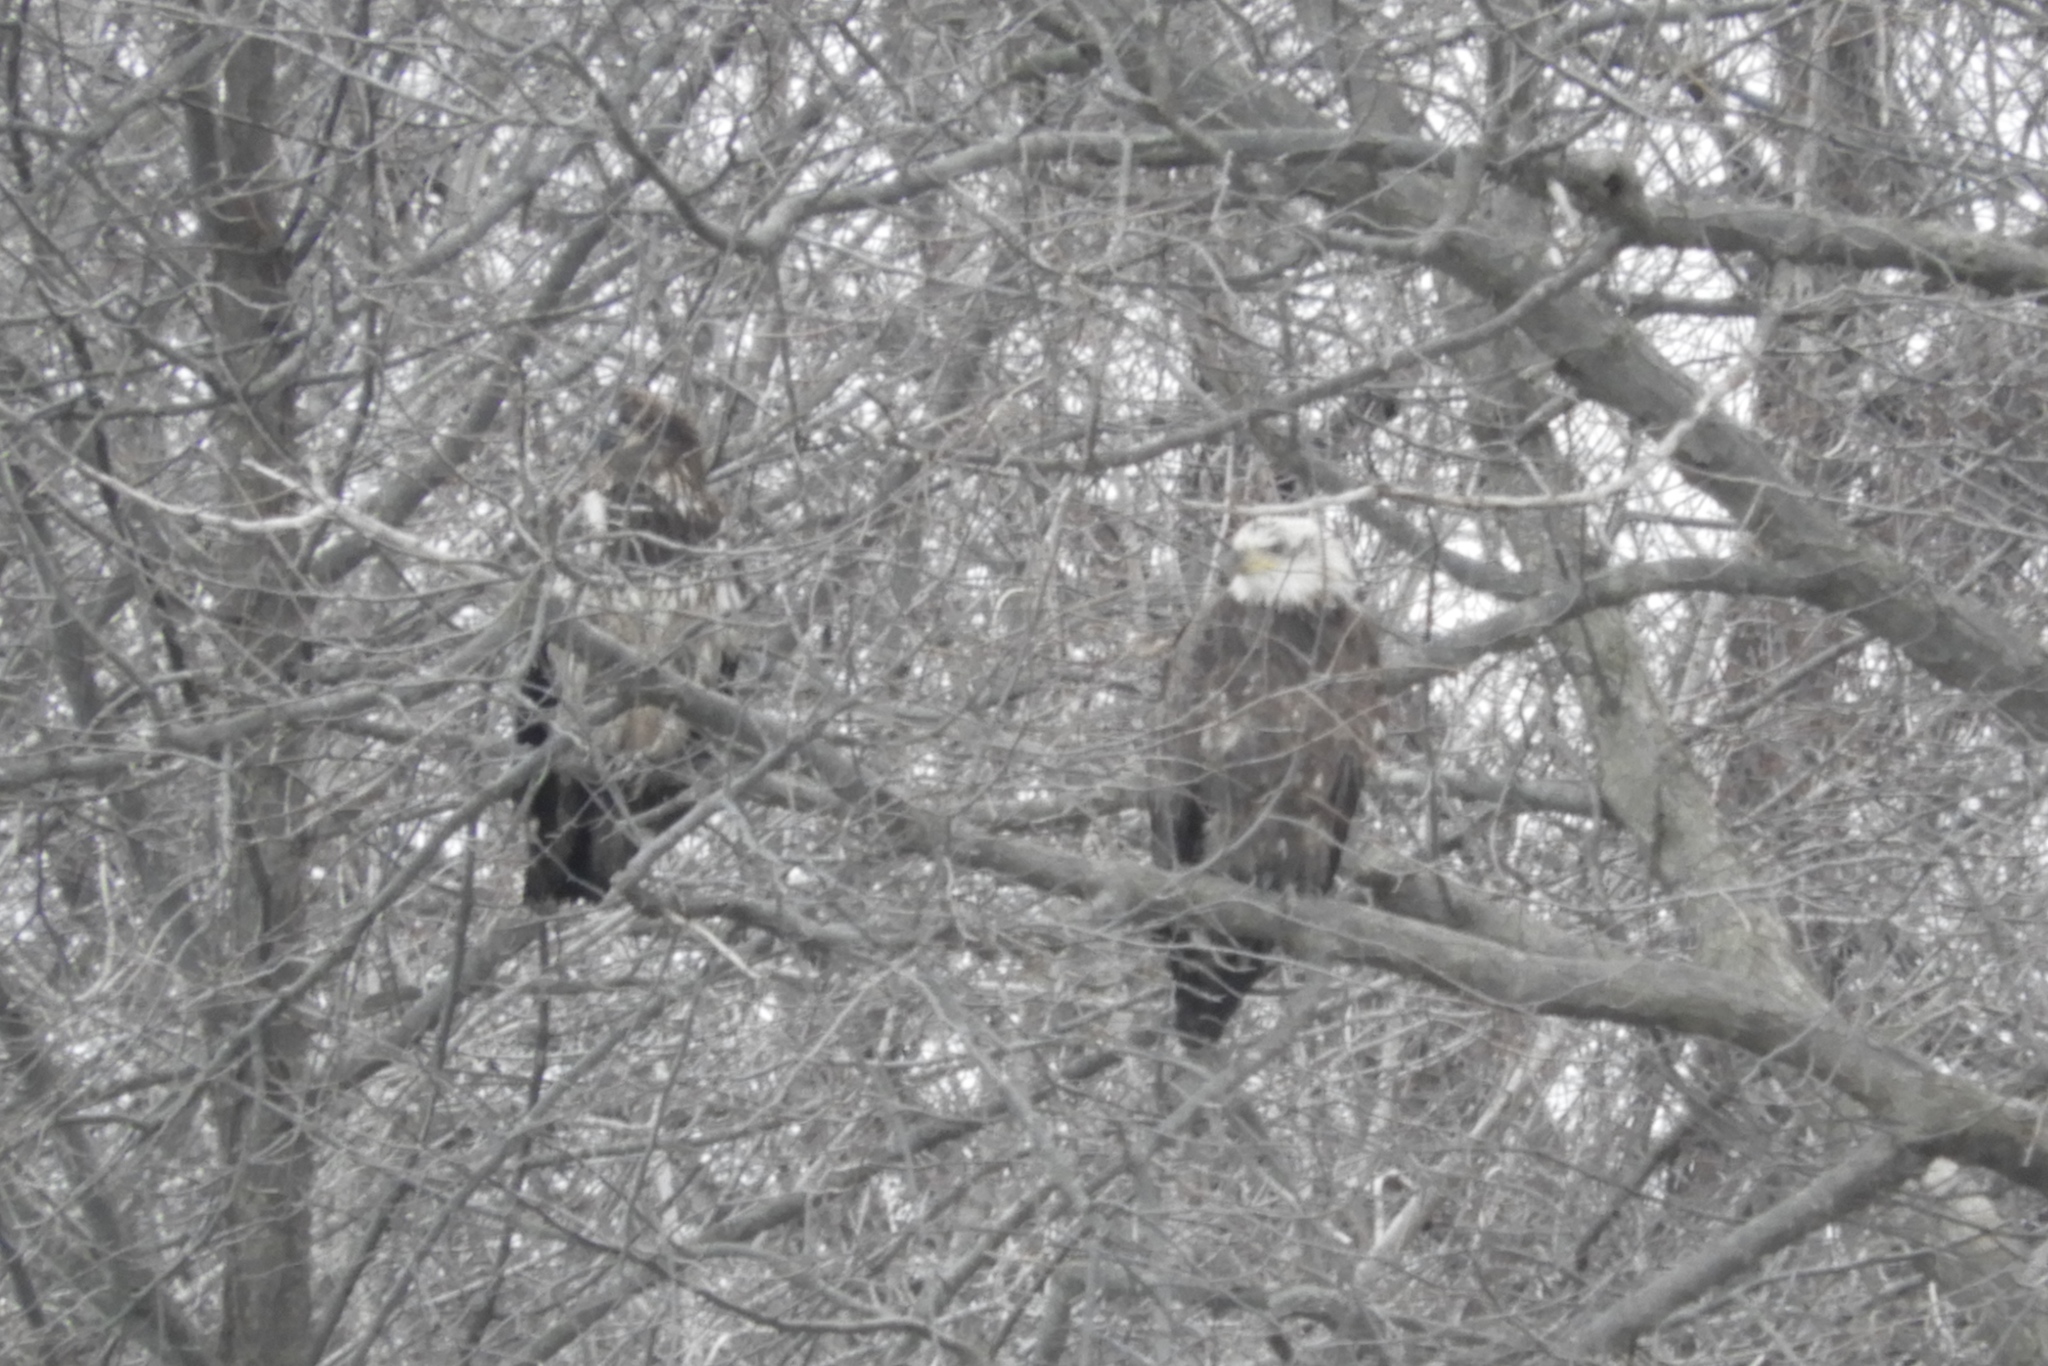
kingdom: Animalia
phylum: Chordata
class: Aves
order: Accipitriformes
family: Accipitridae
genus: Haliaeetus
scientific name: Haliaeetus leucocephalus
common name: Bald eagle
